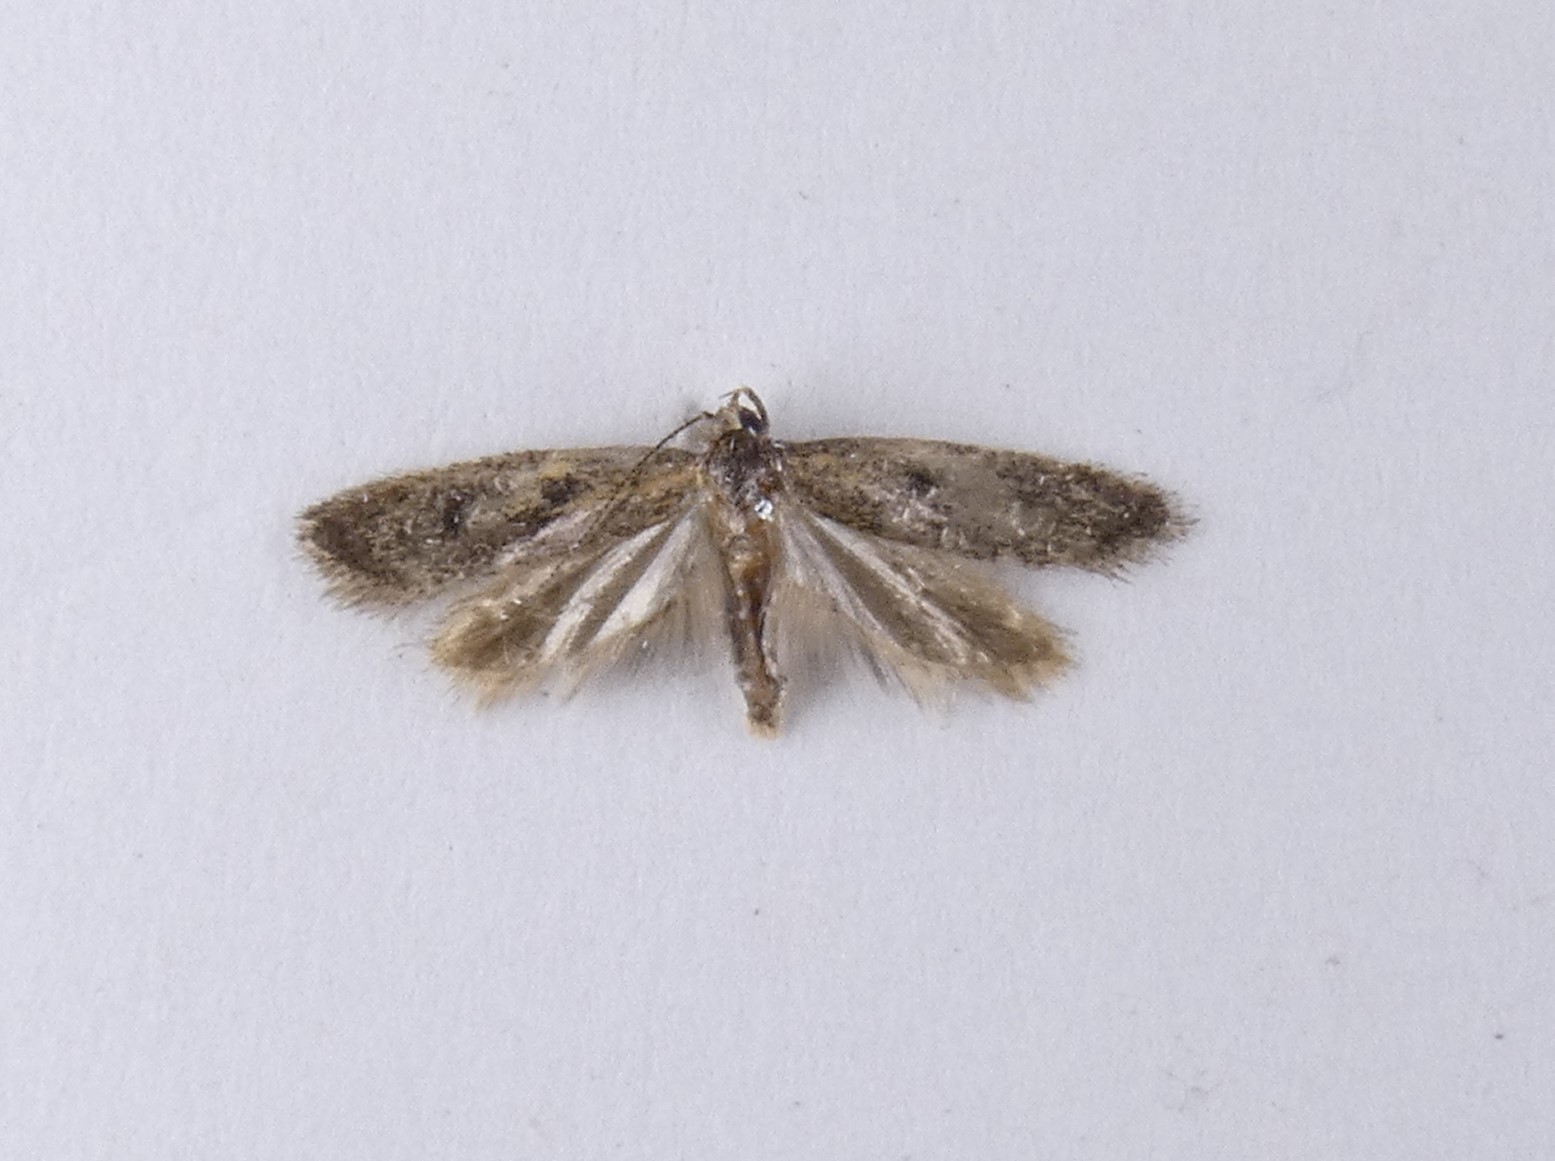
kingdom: Animalia
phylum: Arthropoda
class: Insecta
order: Lepidoptera
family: Oecophoridae
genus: Gymnobathra
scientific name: Gymnobathra tholodella
